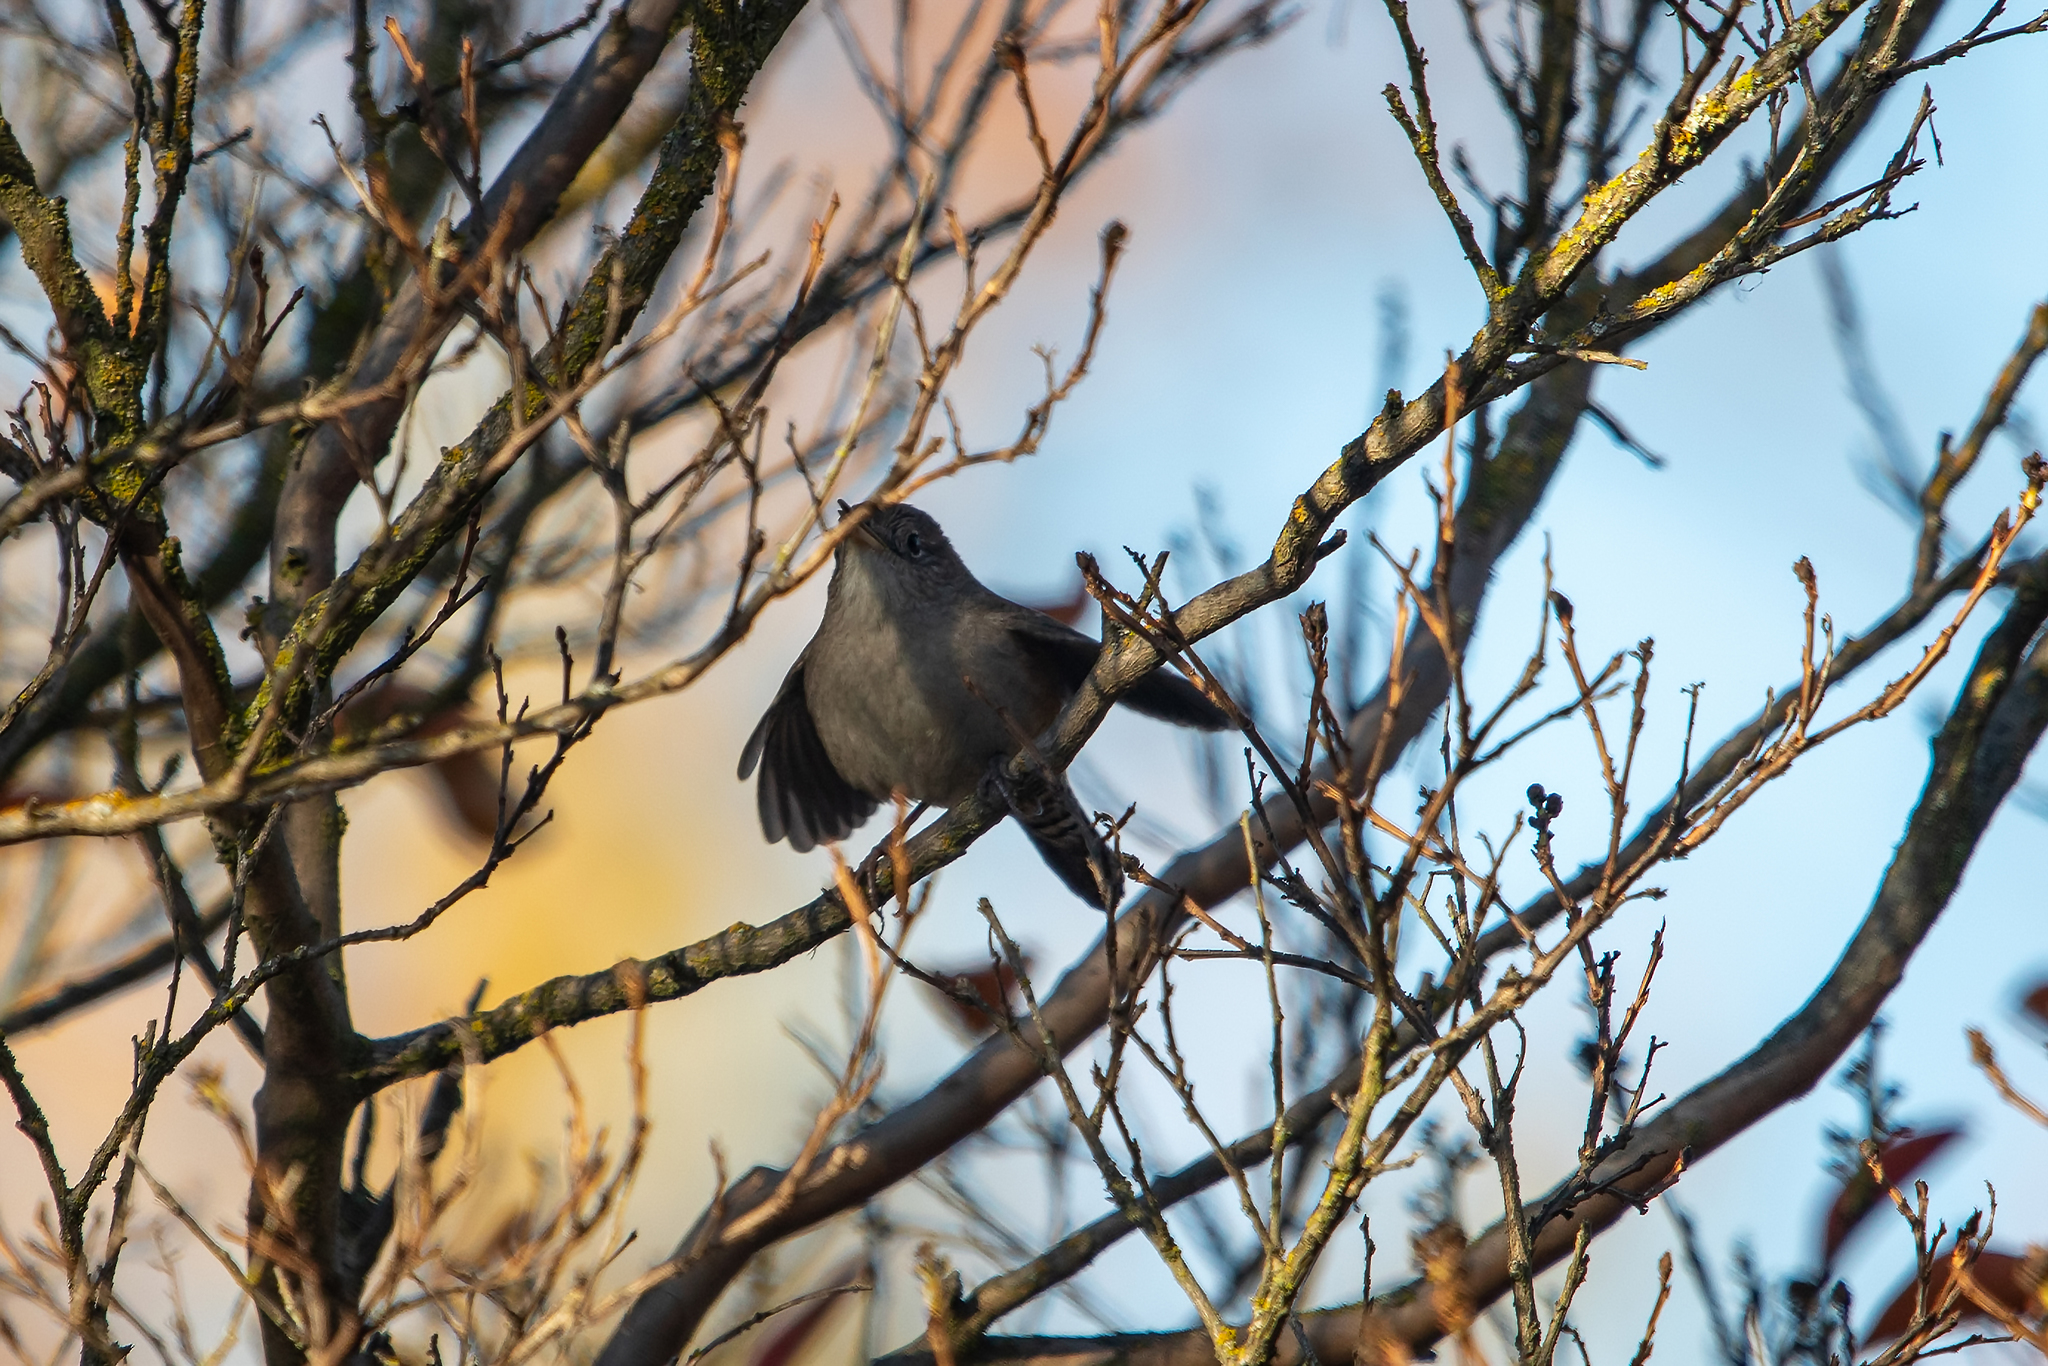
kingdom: Animalia
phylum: Chordata
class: Aves
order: Passeriformes
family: Troglodytidae
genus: Troglodytes
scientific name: Troglodytes aedon
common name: House wren
